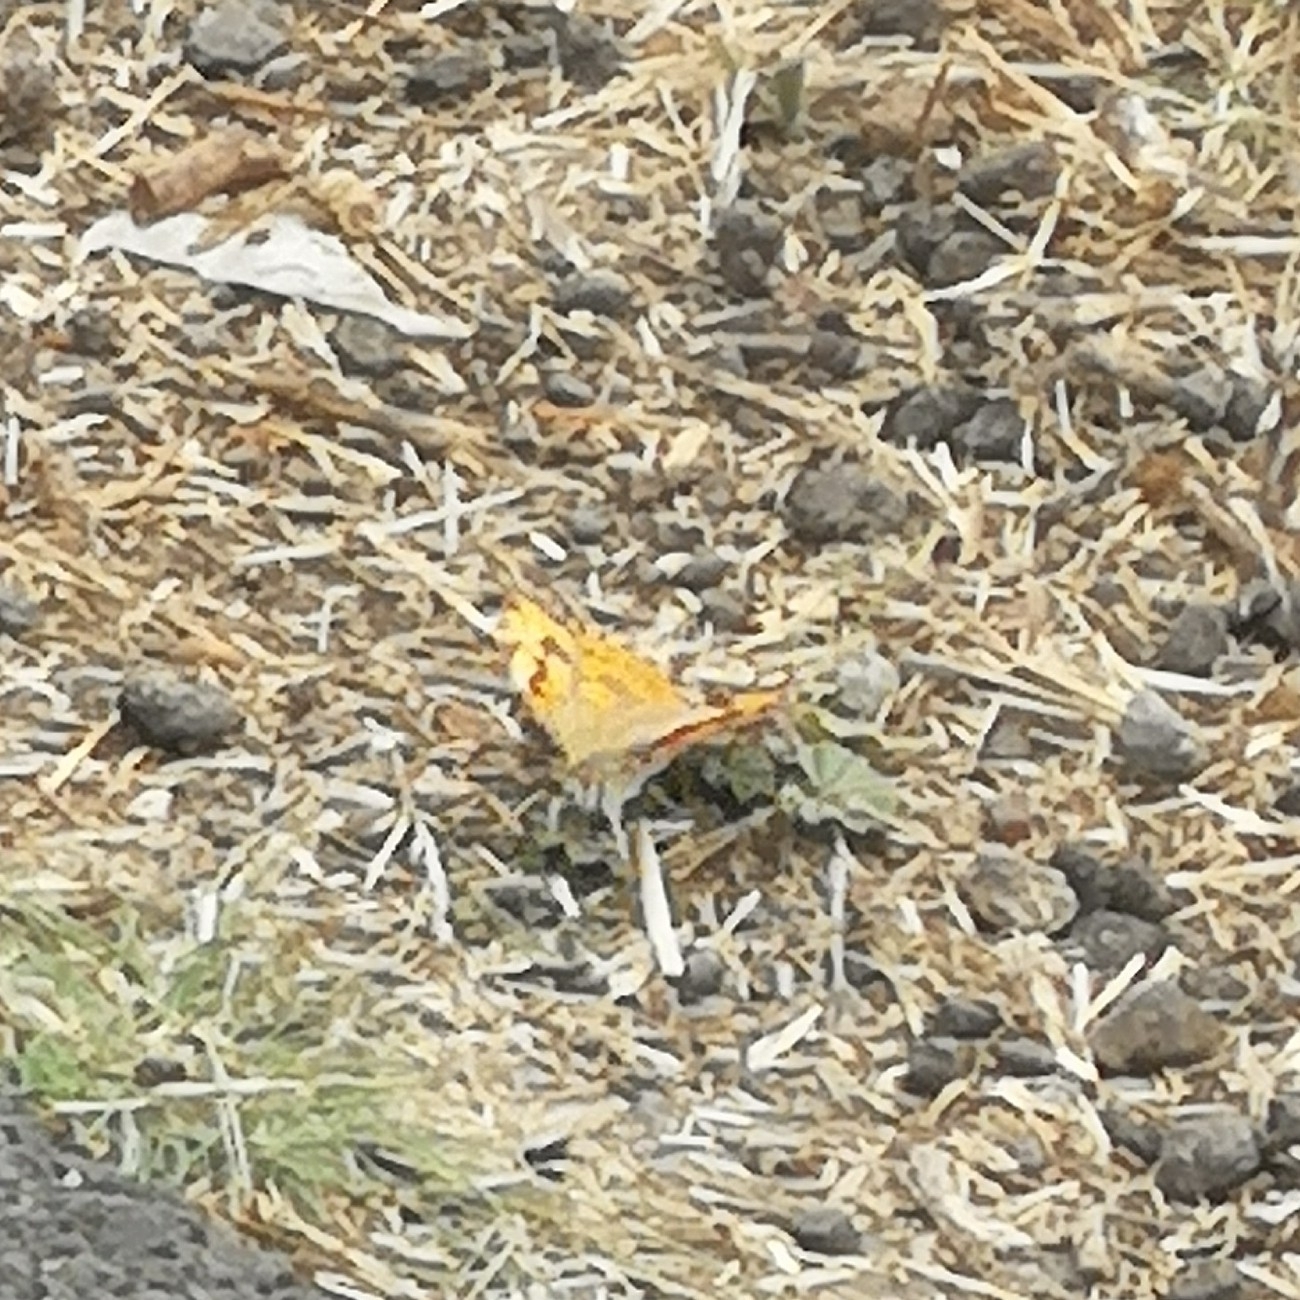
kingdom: Animalia
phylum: Arthropoda
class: Insecta
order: Lepidoptera
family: Nymphalidae
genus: Vanessa
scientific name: Vanessa cardui
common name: Painted lady
